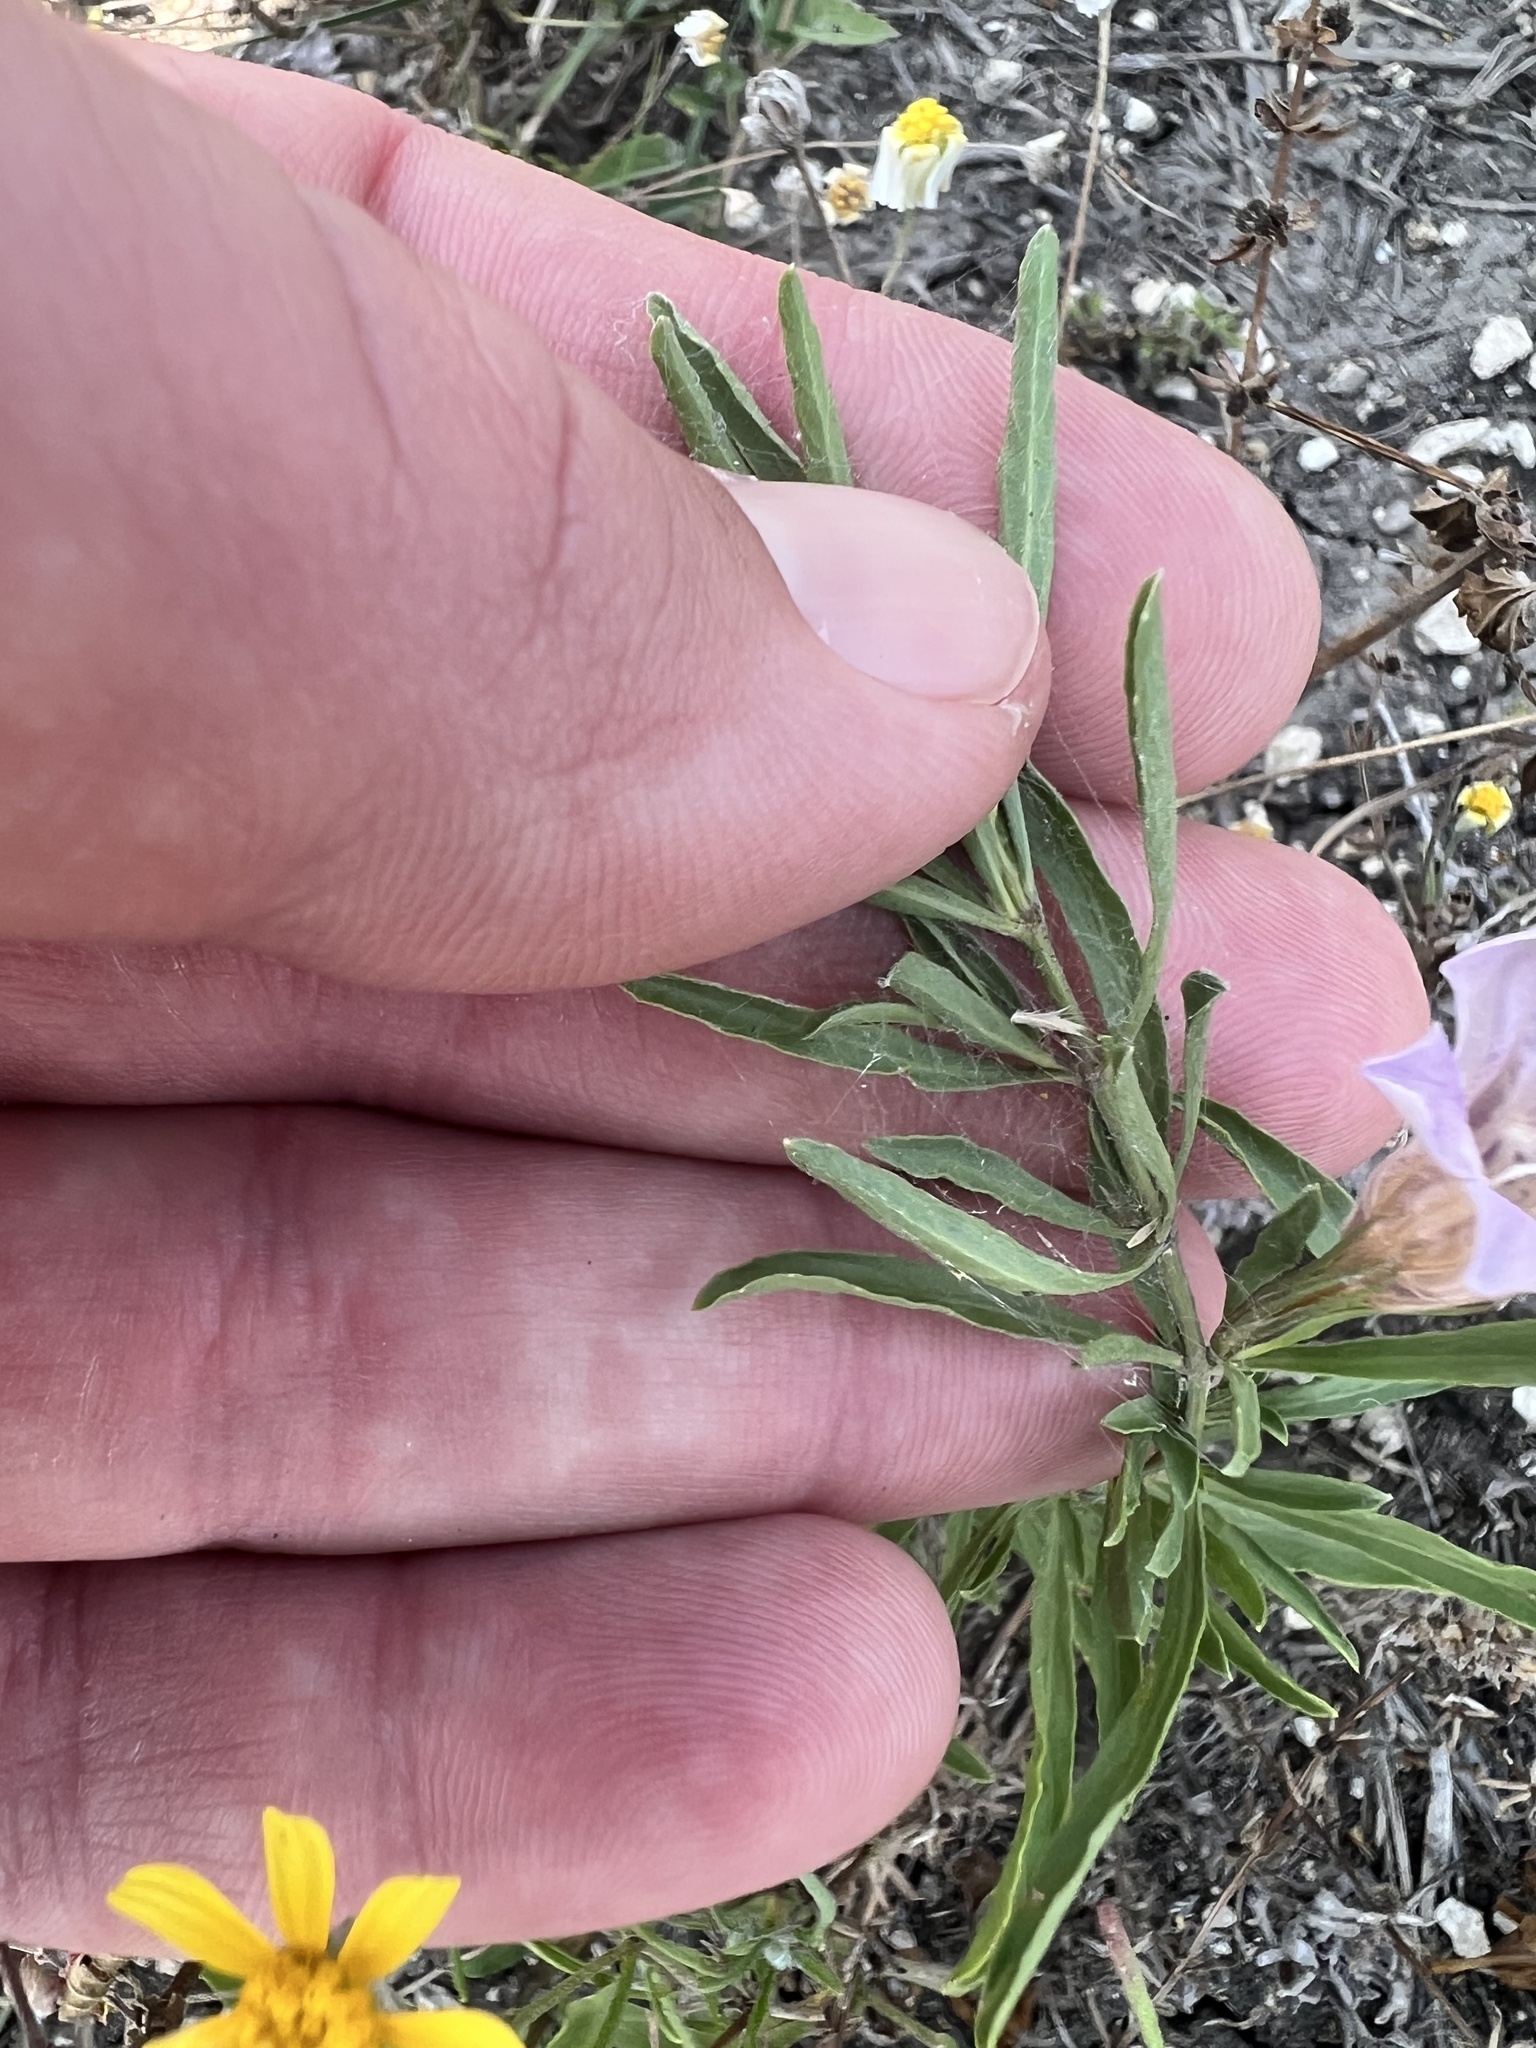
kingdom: Plantae
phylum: Tracheophyta
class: Magnoliopsida
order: Lamiales
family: Acanthaceae
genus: Dyschoriste
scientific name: Dyschoriste linearis
